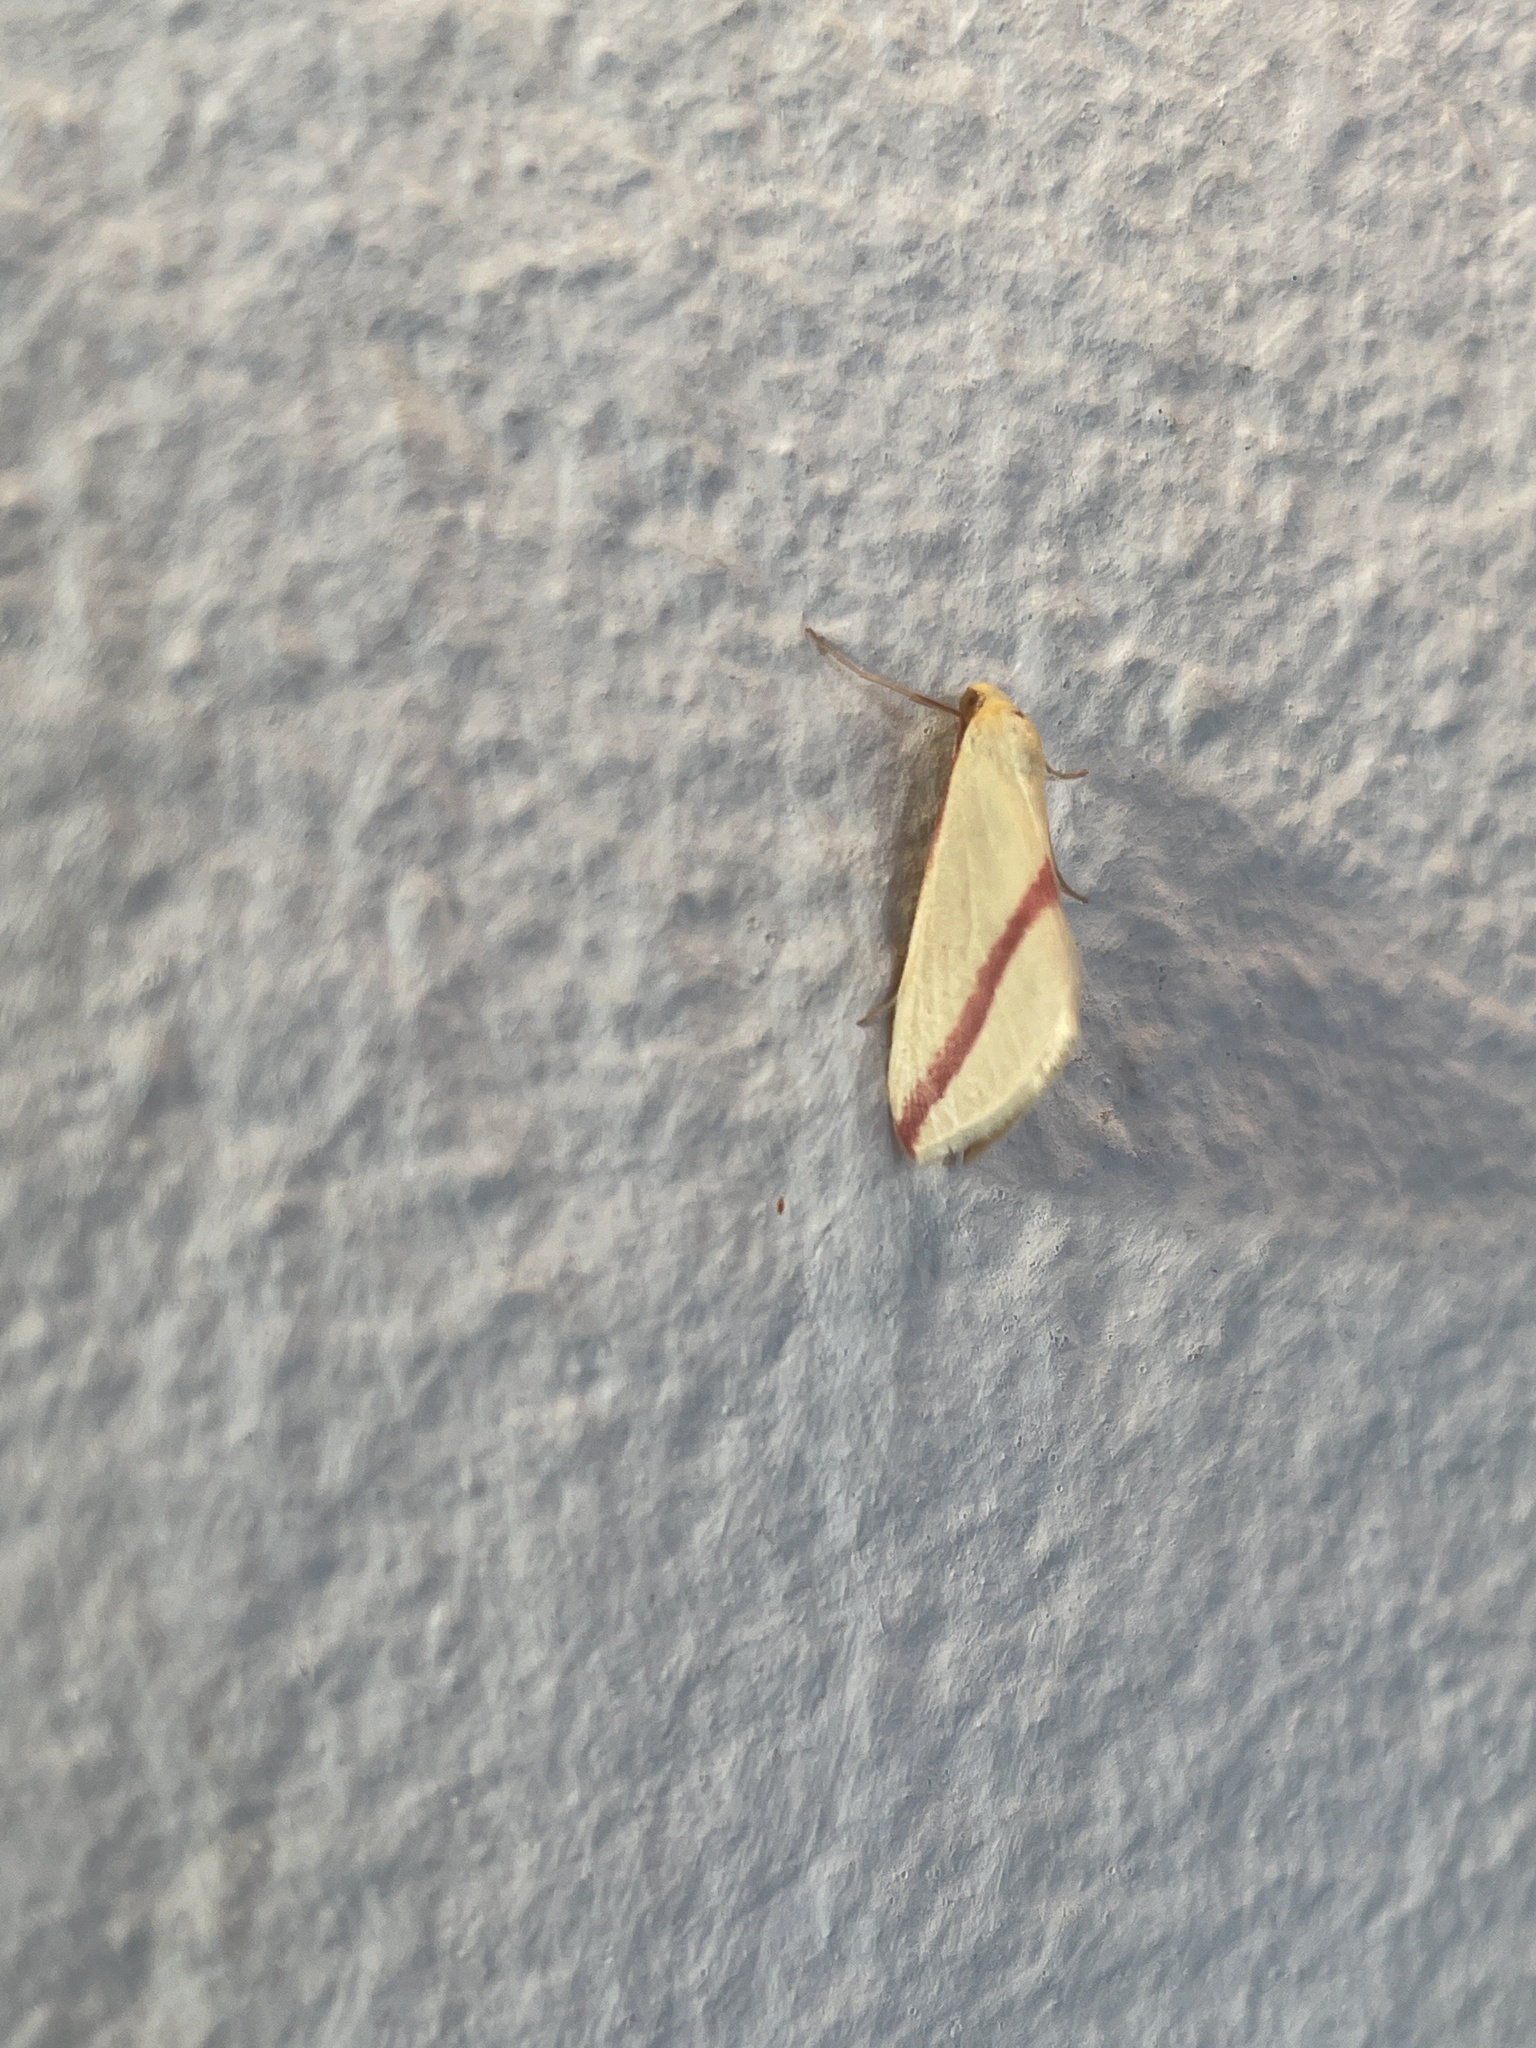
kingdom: Animalia
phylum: Arthropoda
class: Insecta
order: Lepidoptera
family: Geometridae
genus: Rhodometra
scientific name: Rhodometra sacraria
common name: Vestal
